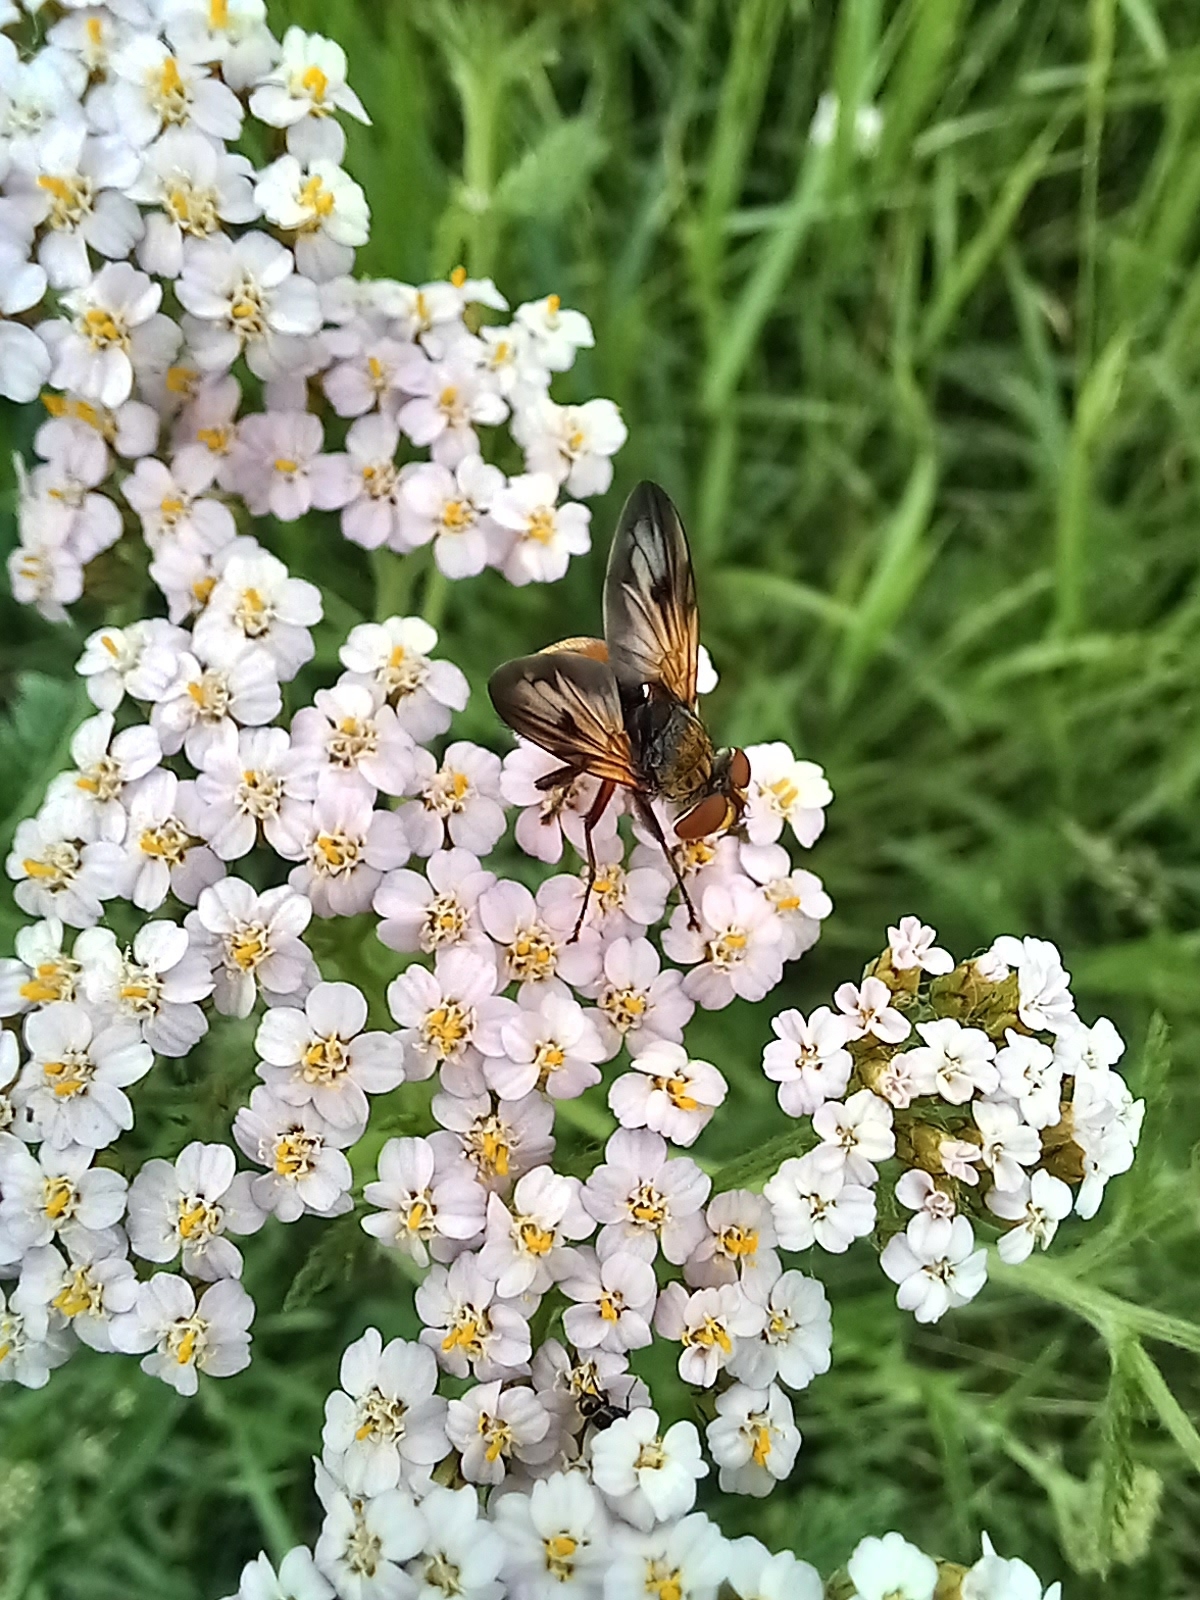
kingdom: Animalia
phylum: Arthropoda
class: Insecta
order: Diptera
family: Tachinidae
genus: Ectophasia
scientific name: Ectophasia crassipennis
